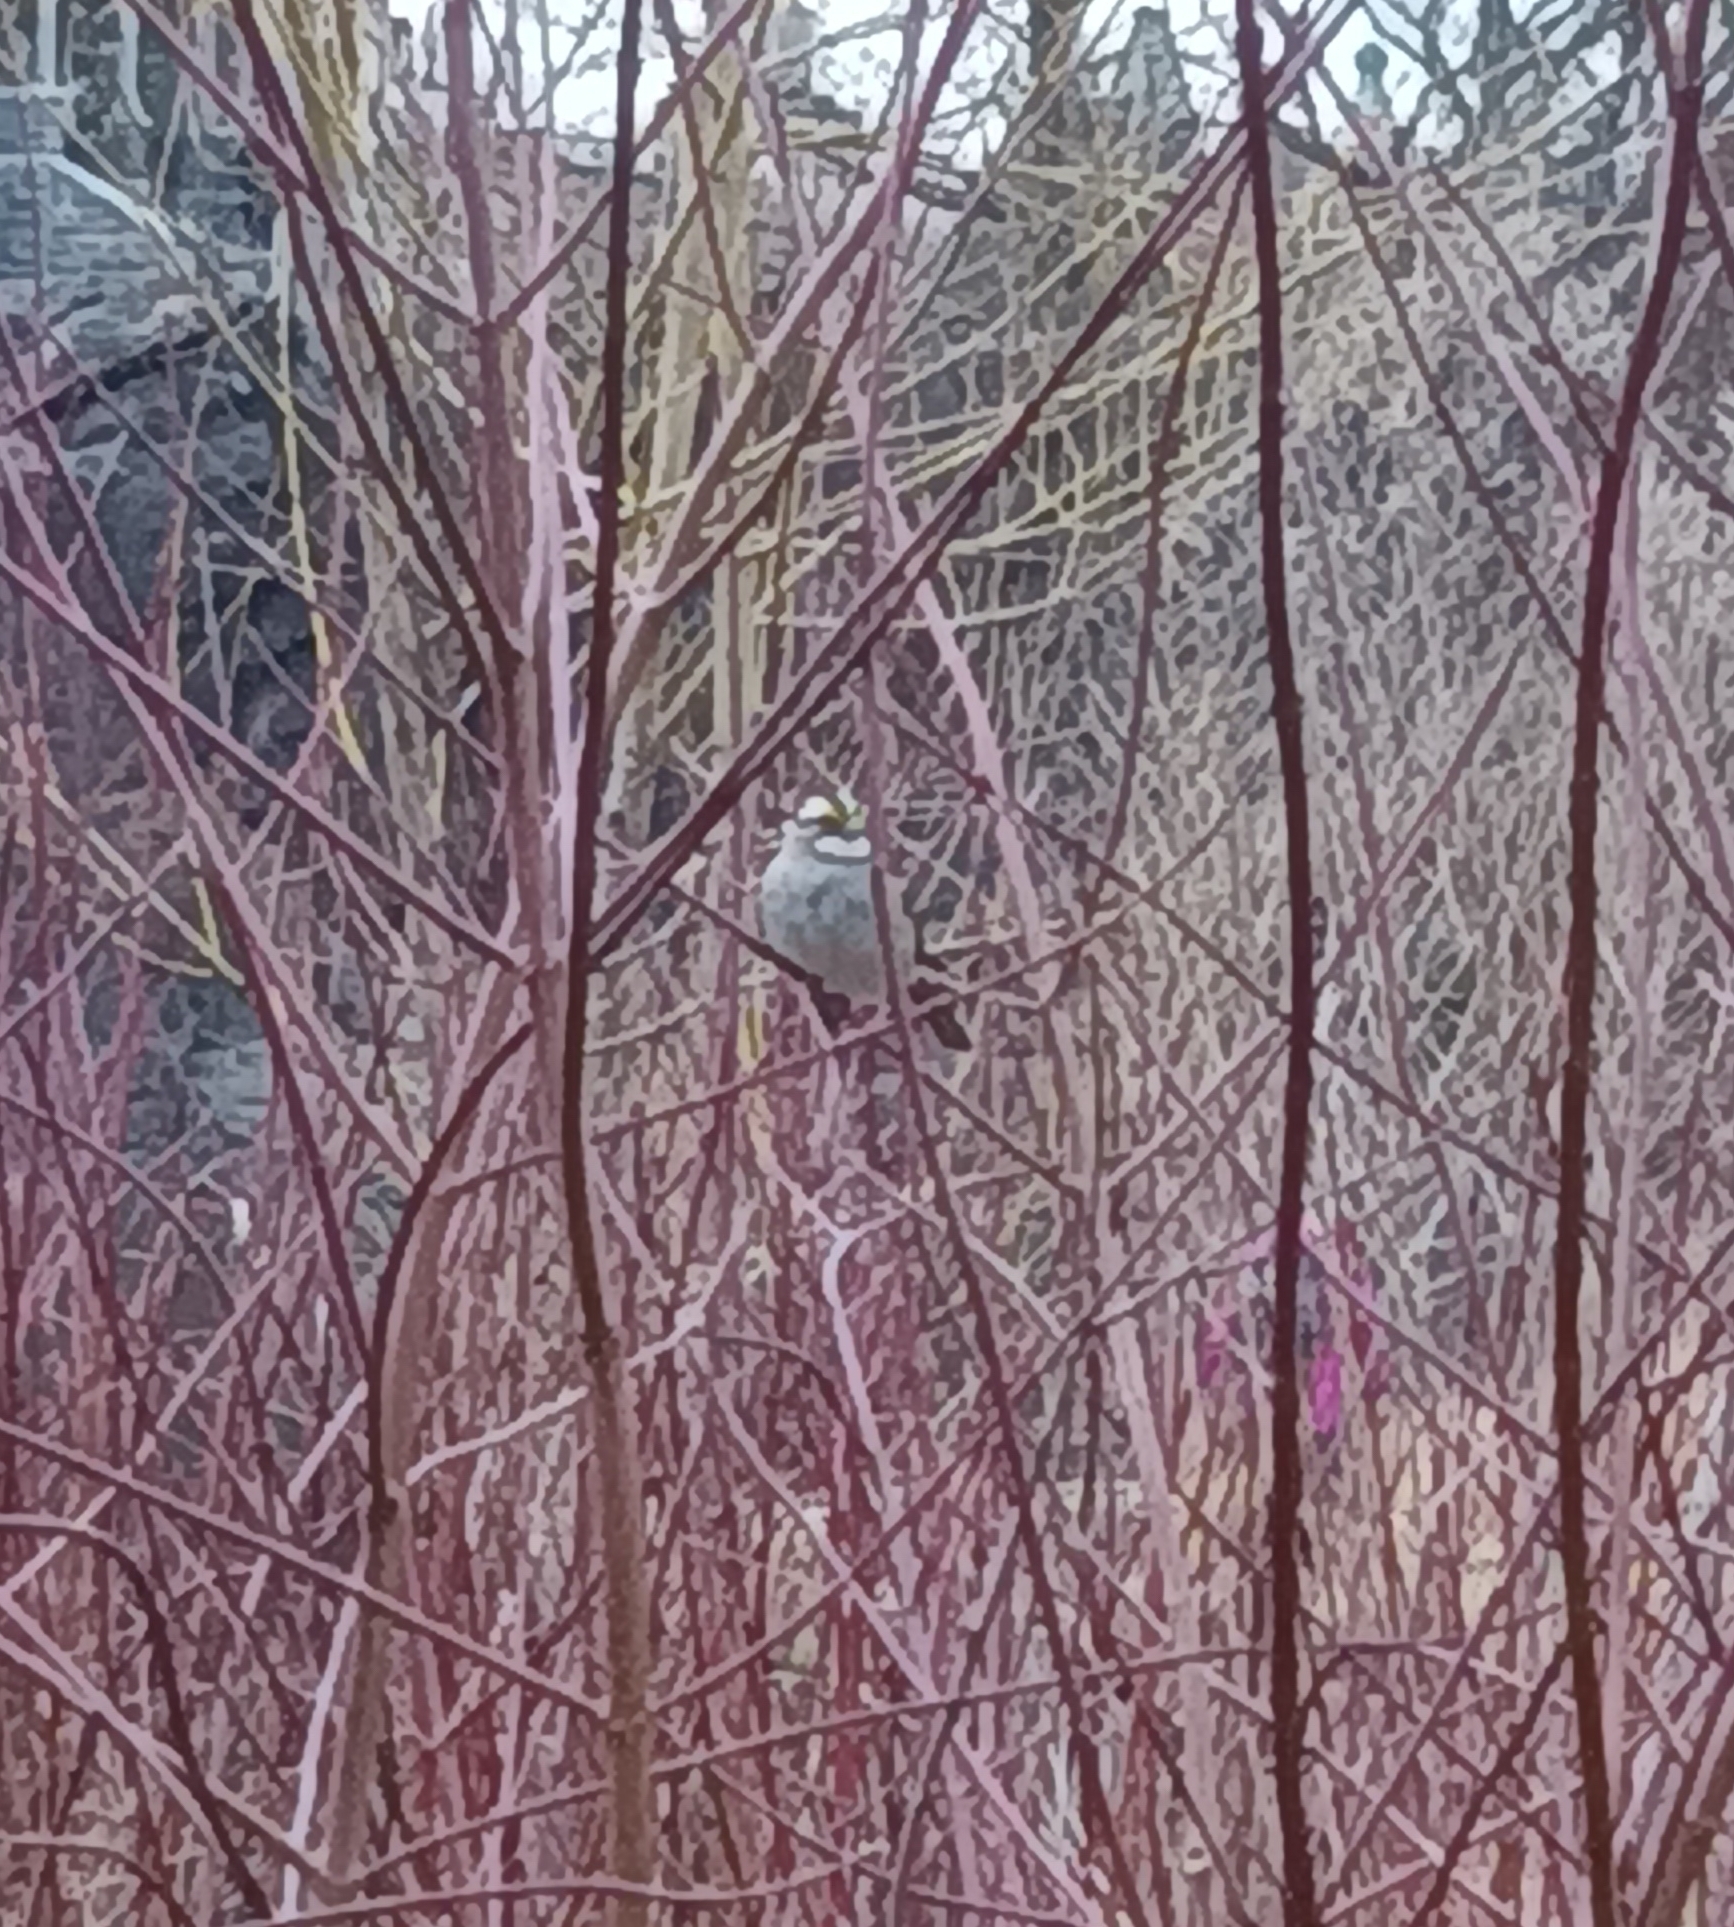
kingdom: Animalia
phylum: Chordata
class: Aves
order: Passeriformes
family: Passerellidae
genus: Zonotrichia
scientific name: Zonotrichia albicollis
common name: White-throated sparrow
